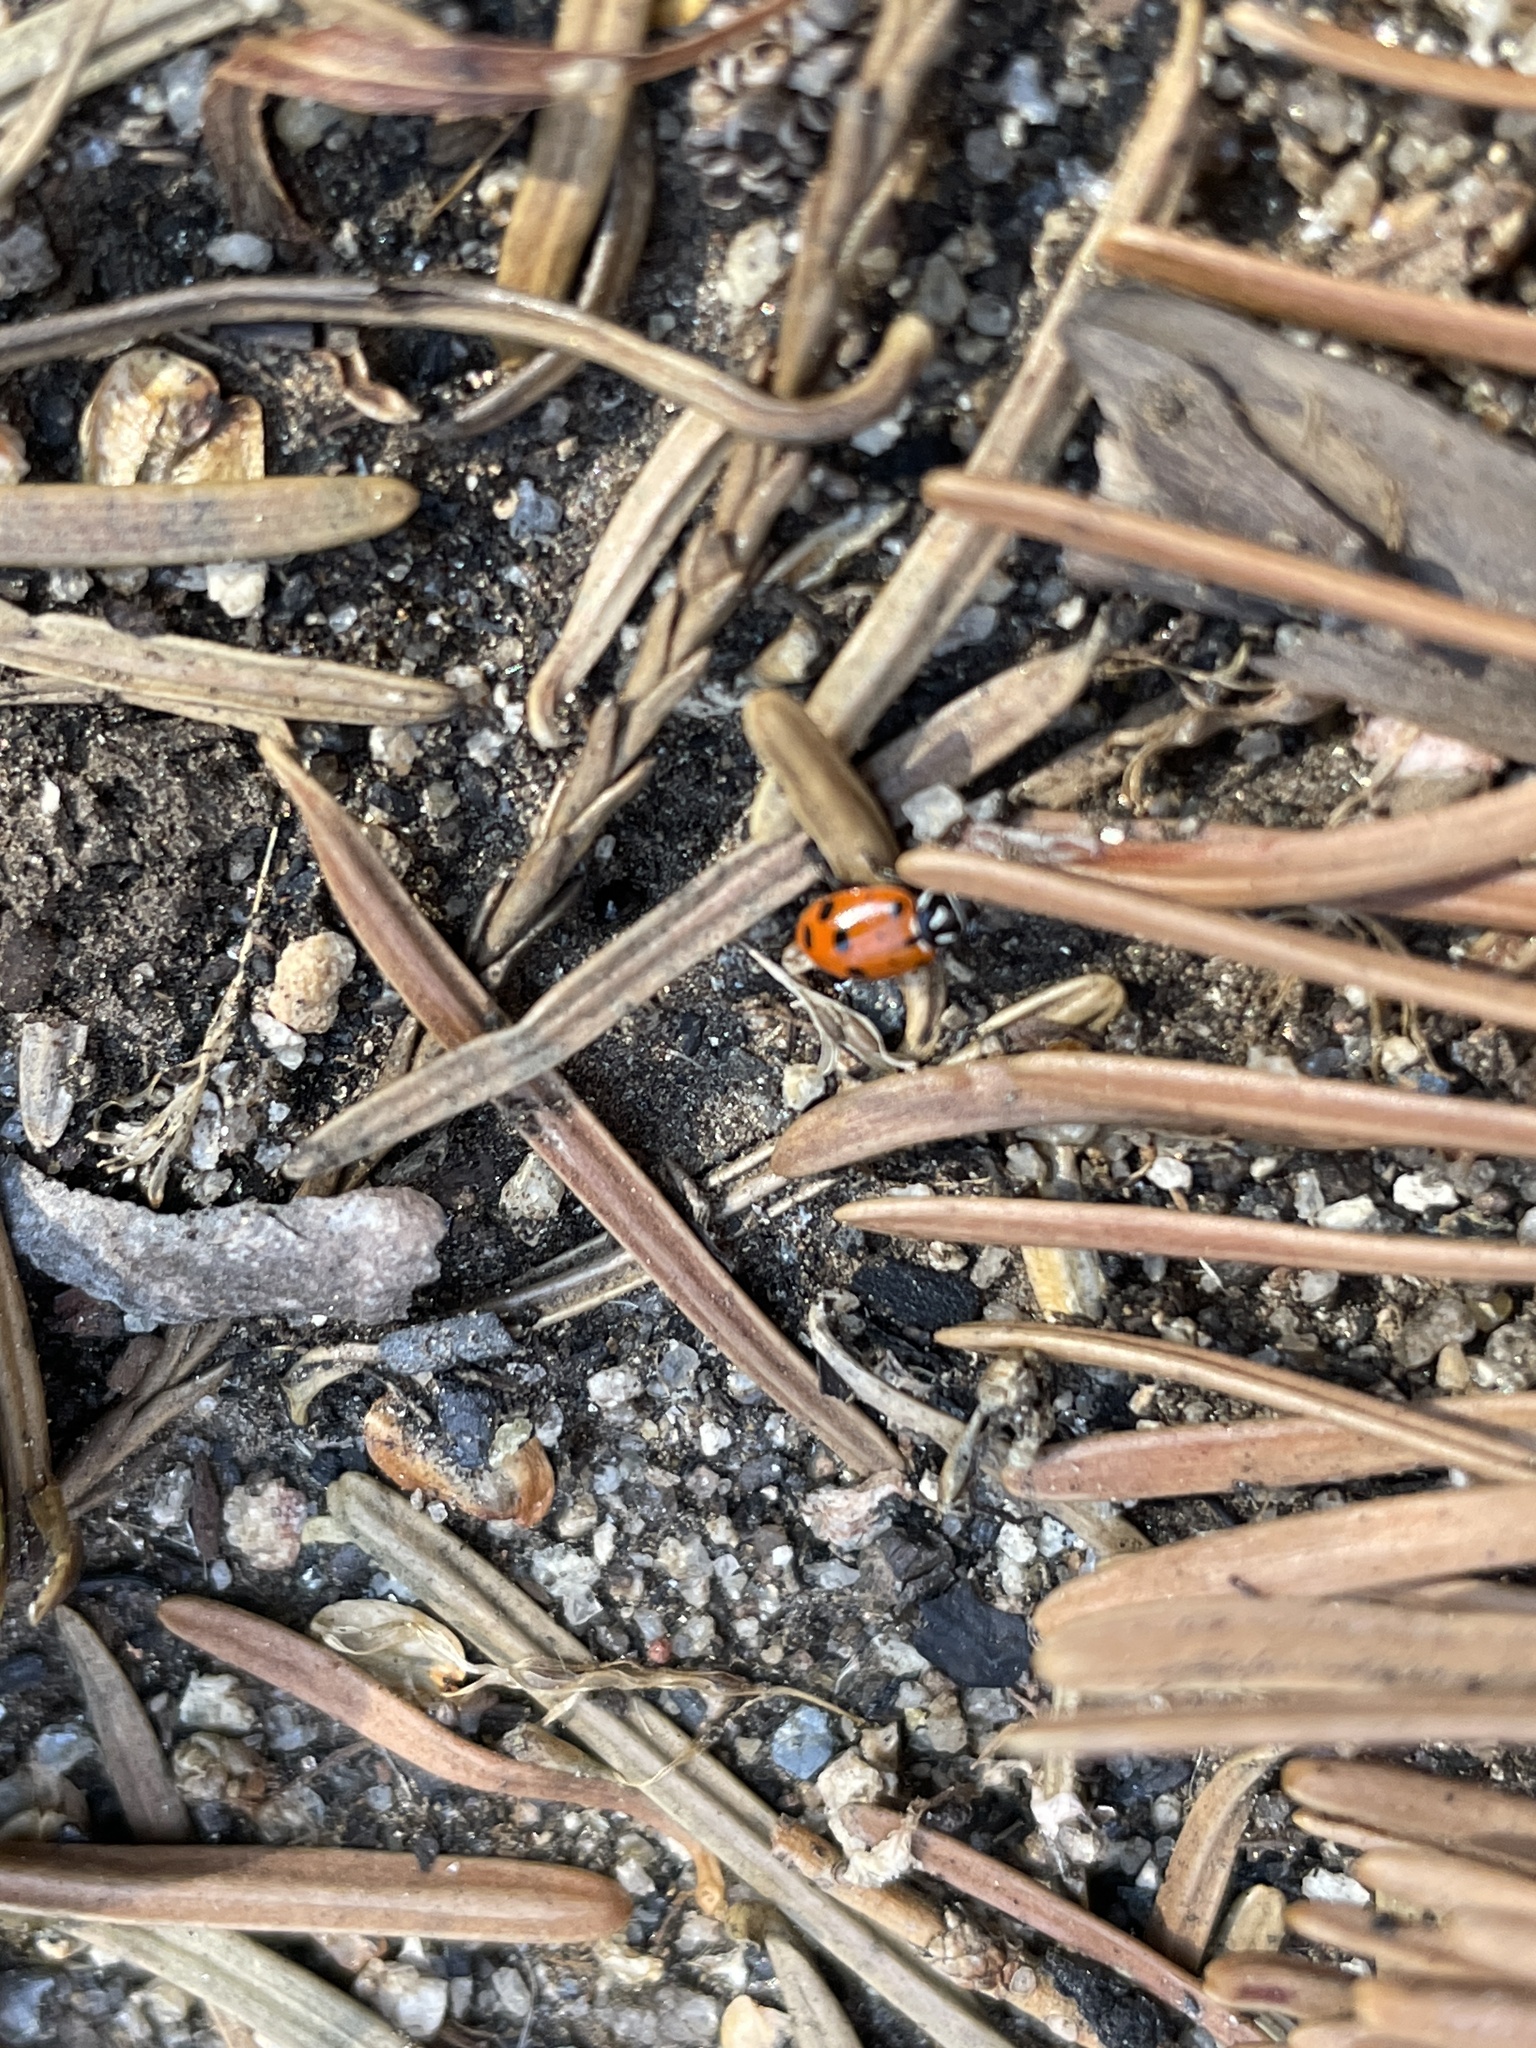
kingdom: Animalia
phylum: Arthropoda
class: Insecta
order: Coleoptera
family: Coccinellidae
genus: Hippodamia
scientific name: Hippodamia convergens
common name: Convergent lady beetle
